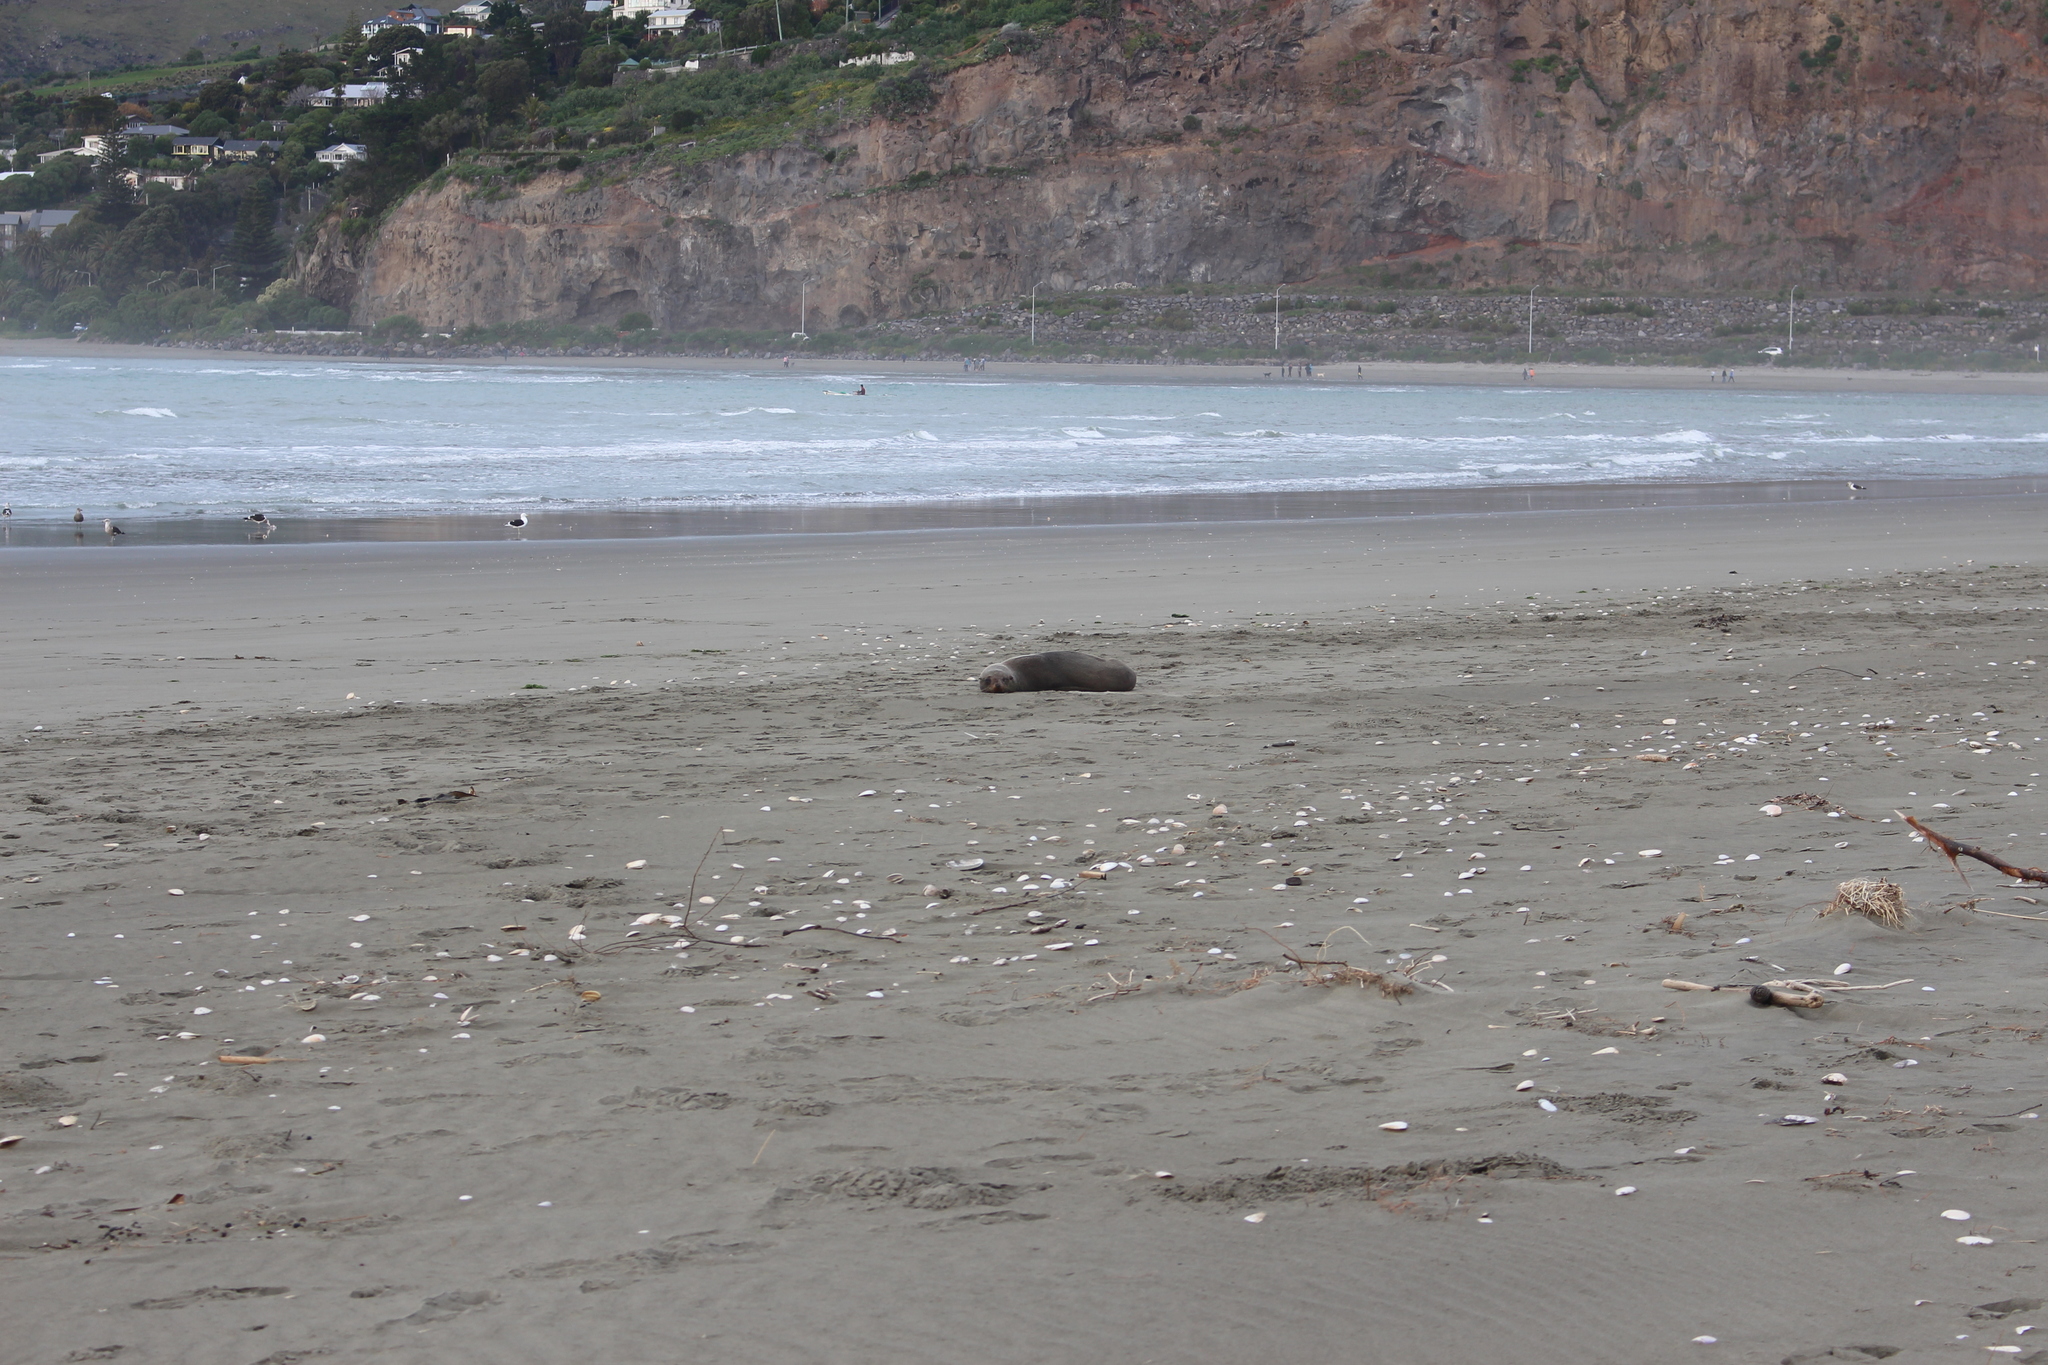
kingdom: Animalia
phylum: Chordata
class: Mammalia
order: Carnivora
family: Otariidae
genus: Arctocephalus
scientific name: Arctocephalus forsteri
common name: New zealand fur seal
